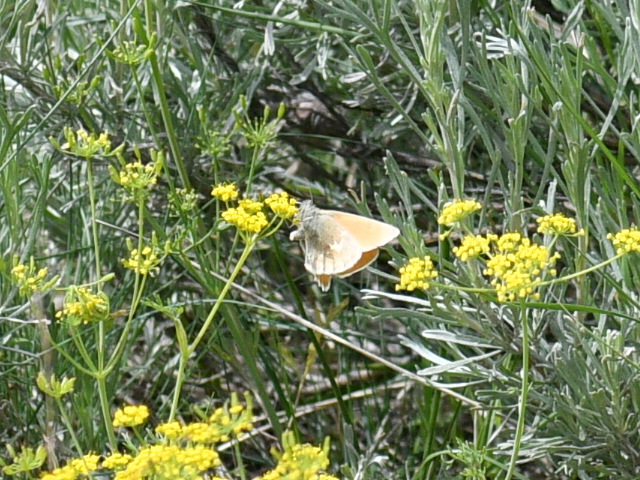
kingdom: Animalia
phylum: Arthropoda
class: Insecta
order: Lepidoptera
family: Nymphalidae
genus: Coenonympha
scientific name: Coenonympha california
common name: Common ringlet
